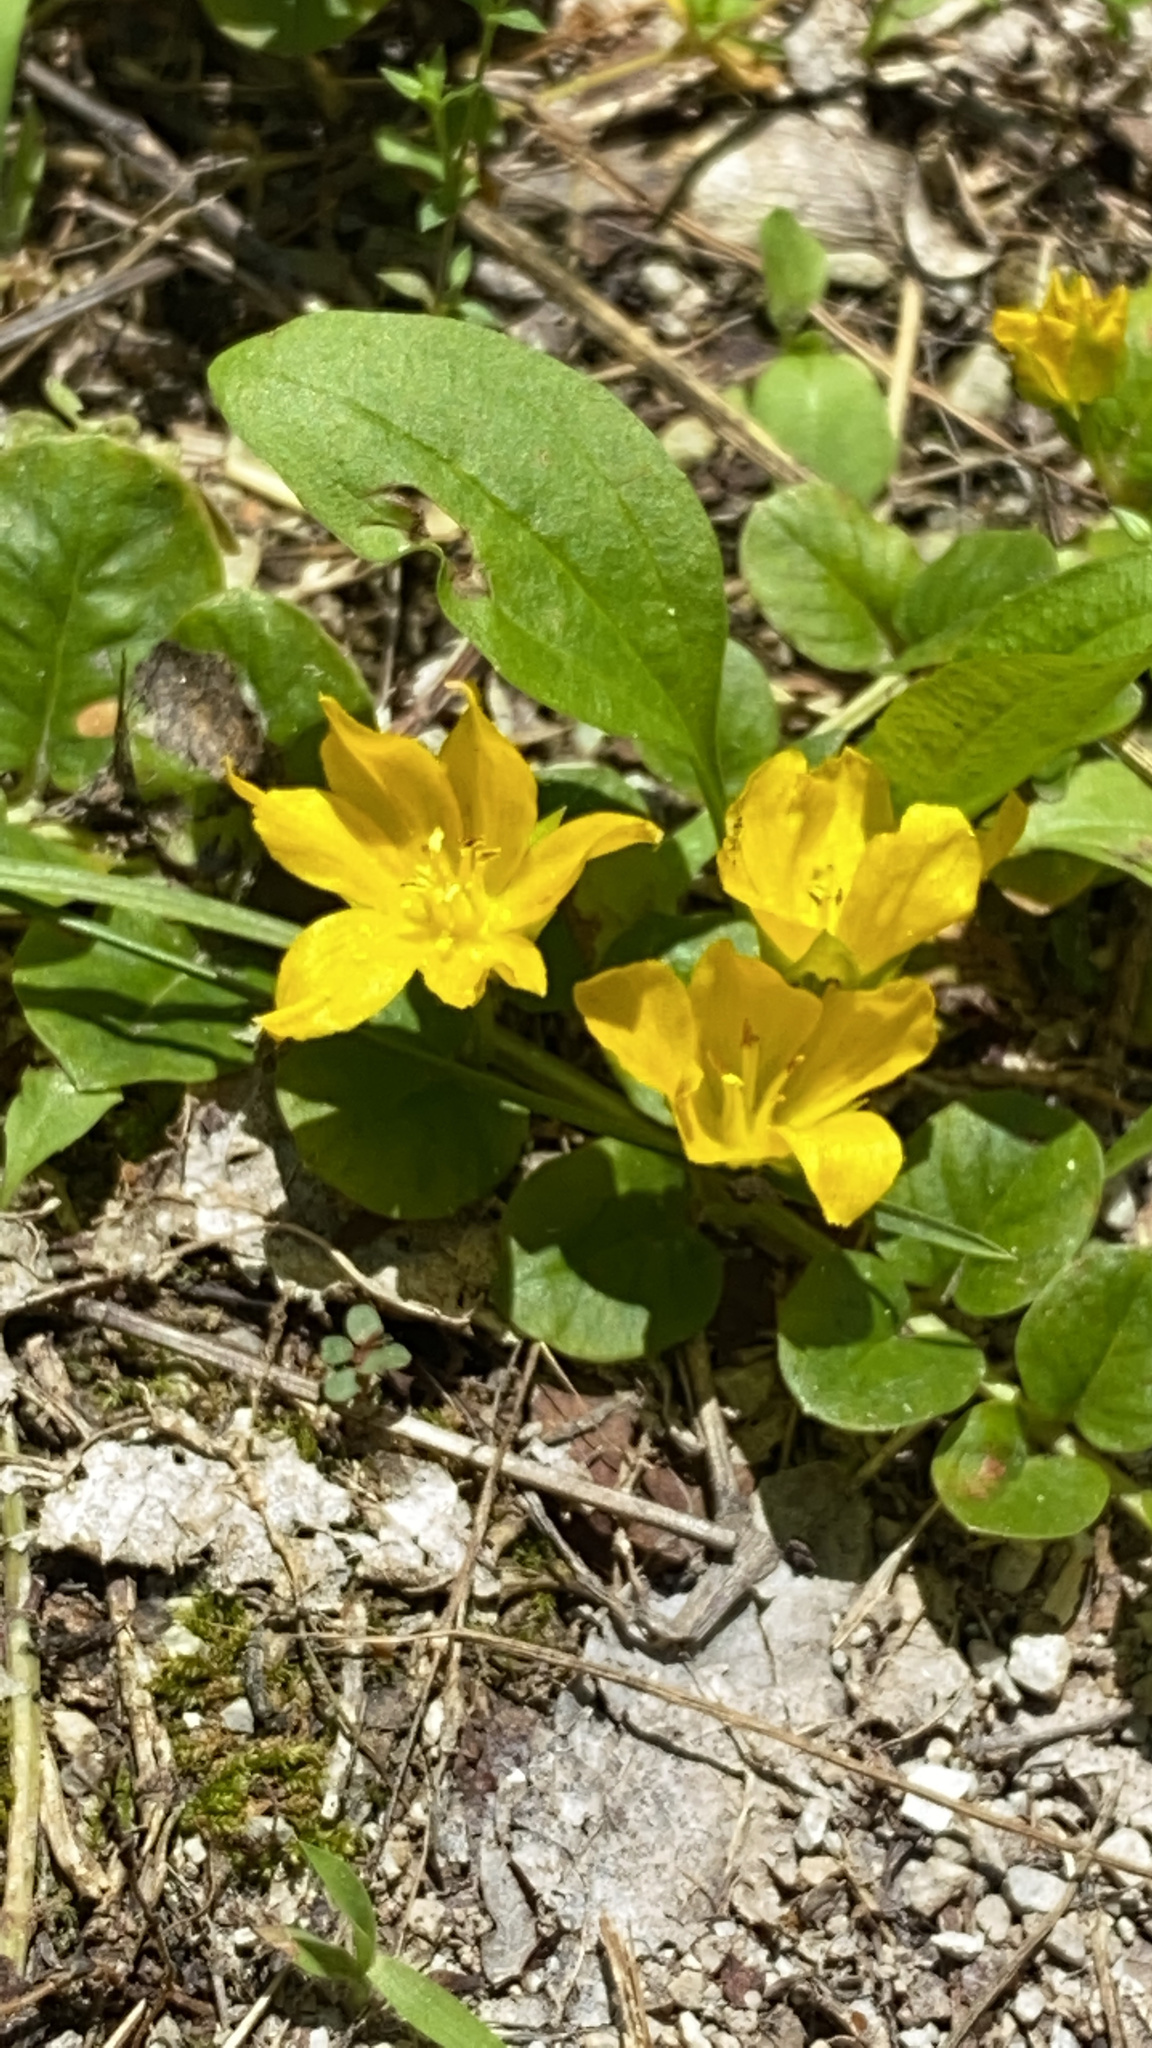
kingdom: Plantae
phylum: Tracheophyta
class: Magnoliopsida
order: Ericales
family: Primulaceae
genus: Lysimachia
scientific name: Lysimachia nummularia
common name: Moneywort
